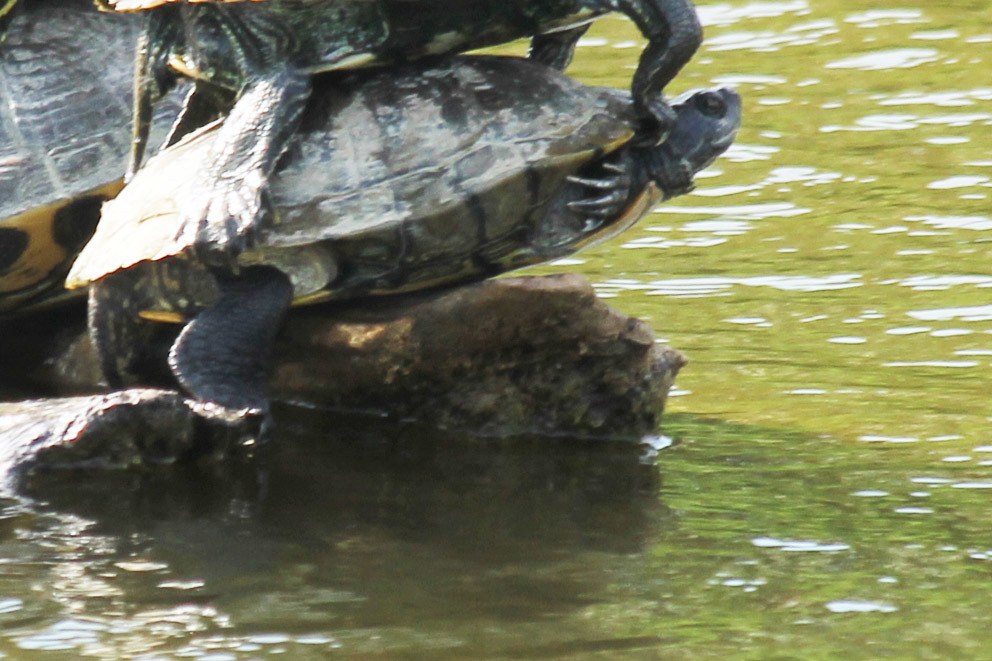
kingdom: Animalia
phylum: Chordata
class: Testudines
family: Emydidae
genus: Trachemys
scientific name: Trachemys scripta
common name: Slider
